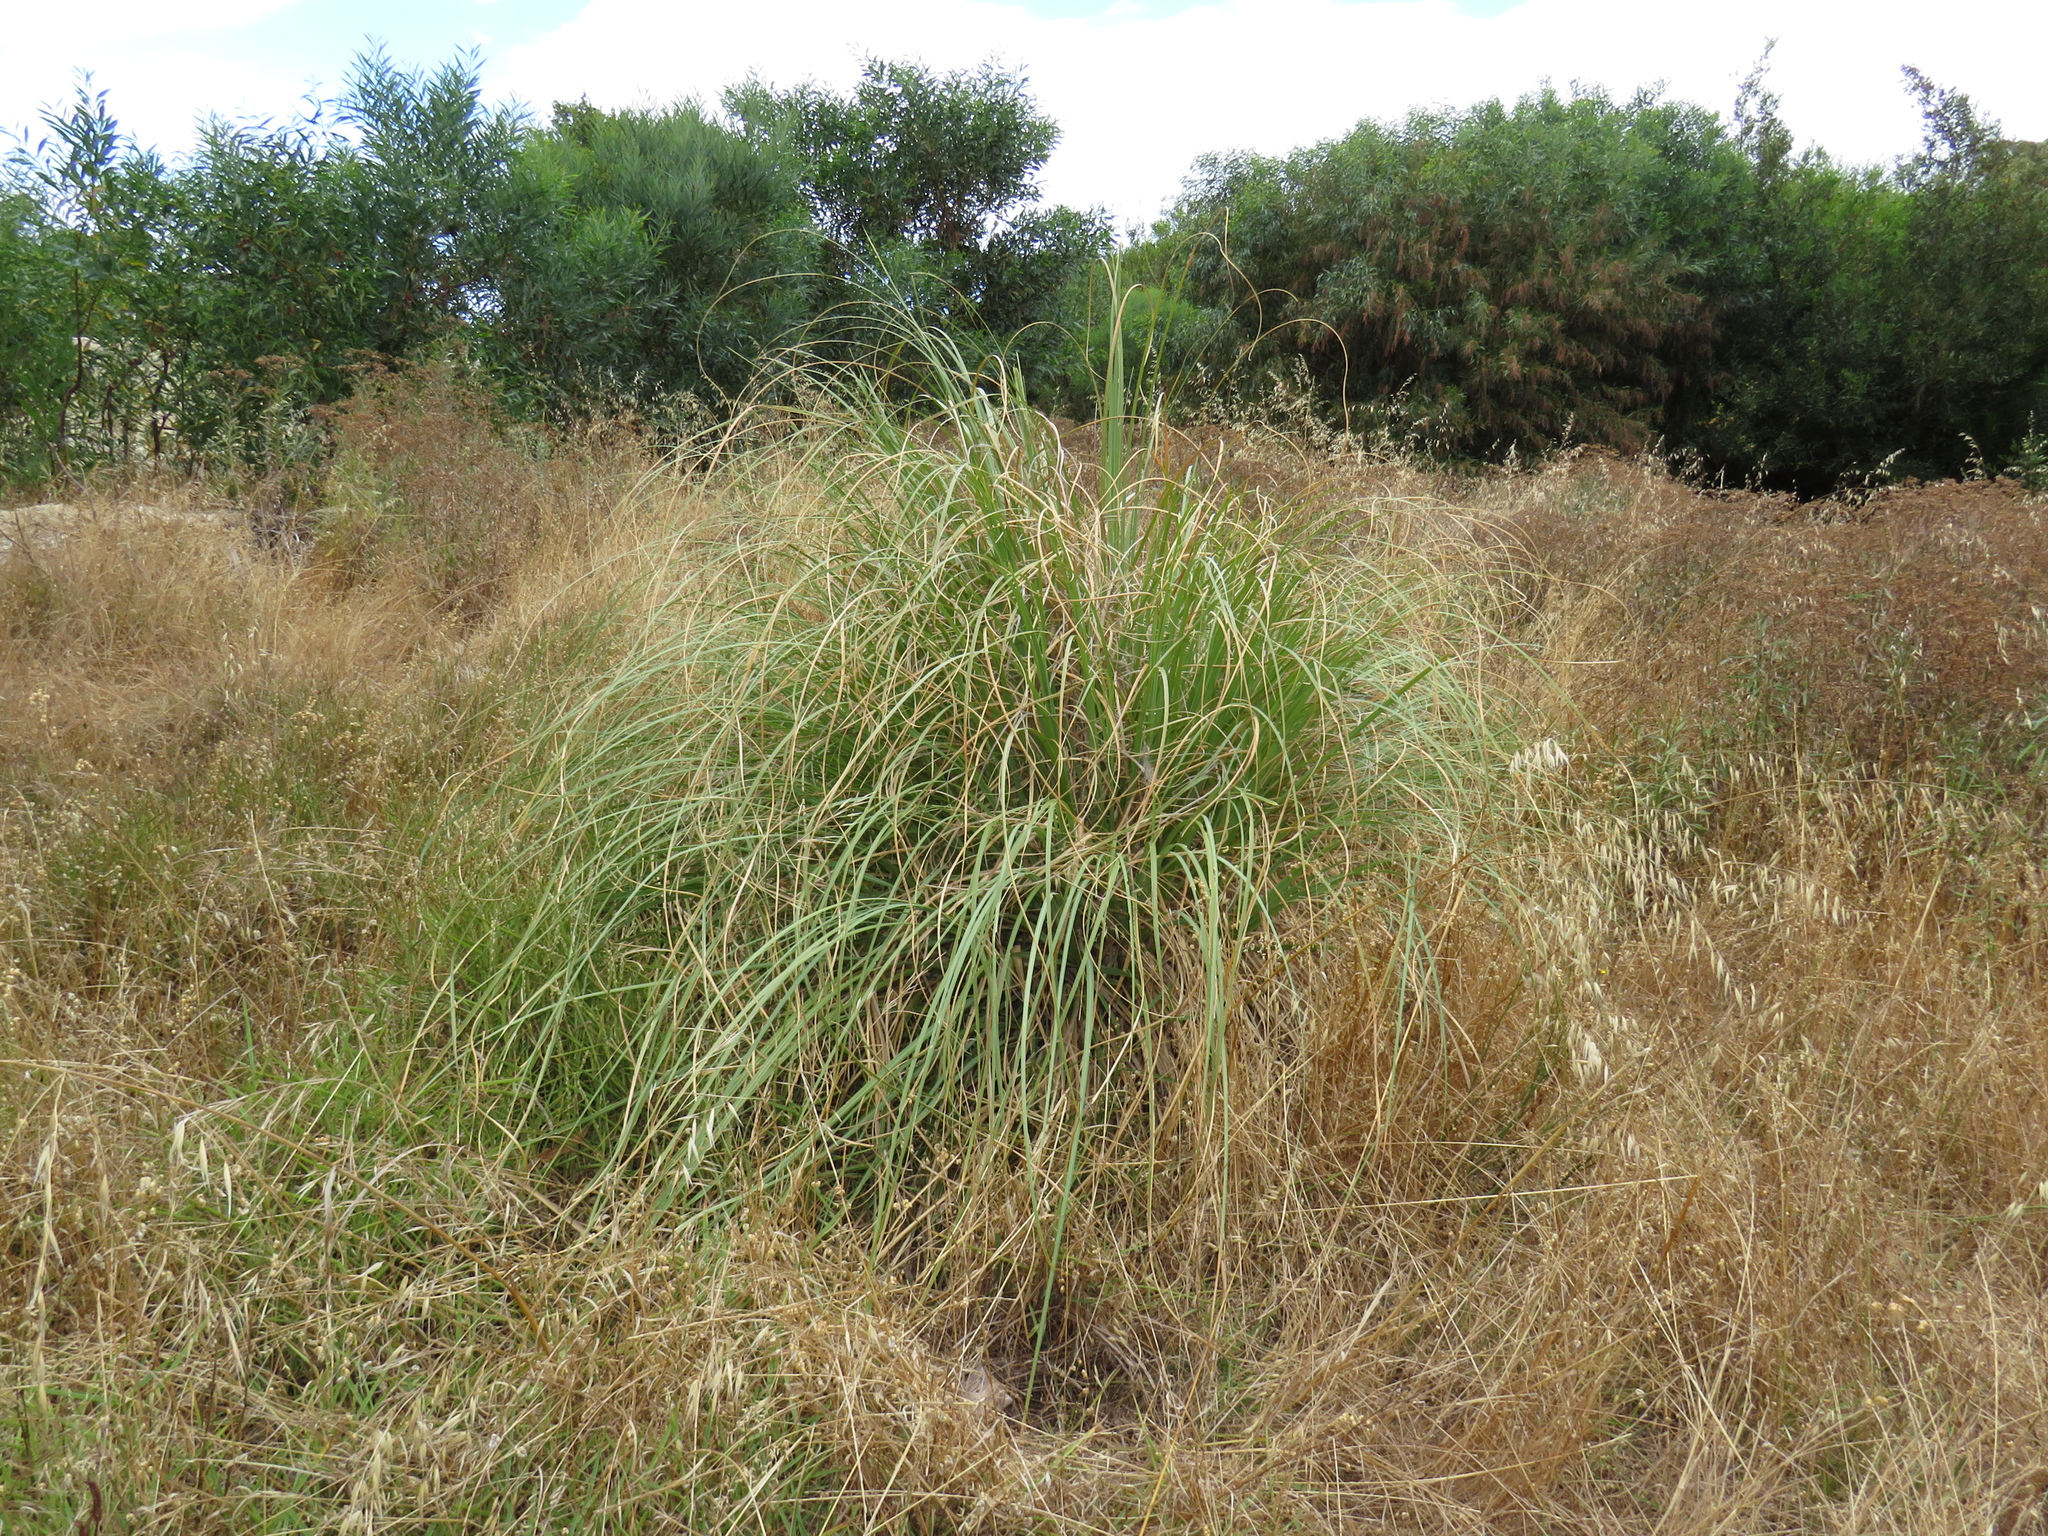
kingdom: Plantae
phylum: Tracheophyta
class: Liliopsida
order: Poales
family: Poaceae
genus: Cortaderia
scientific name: Cortaderia selloana
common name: Uruguayan pampas grass
